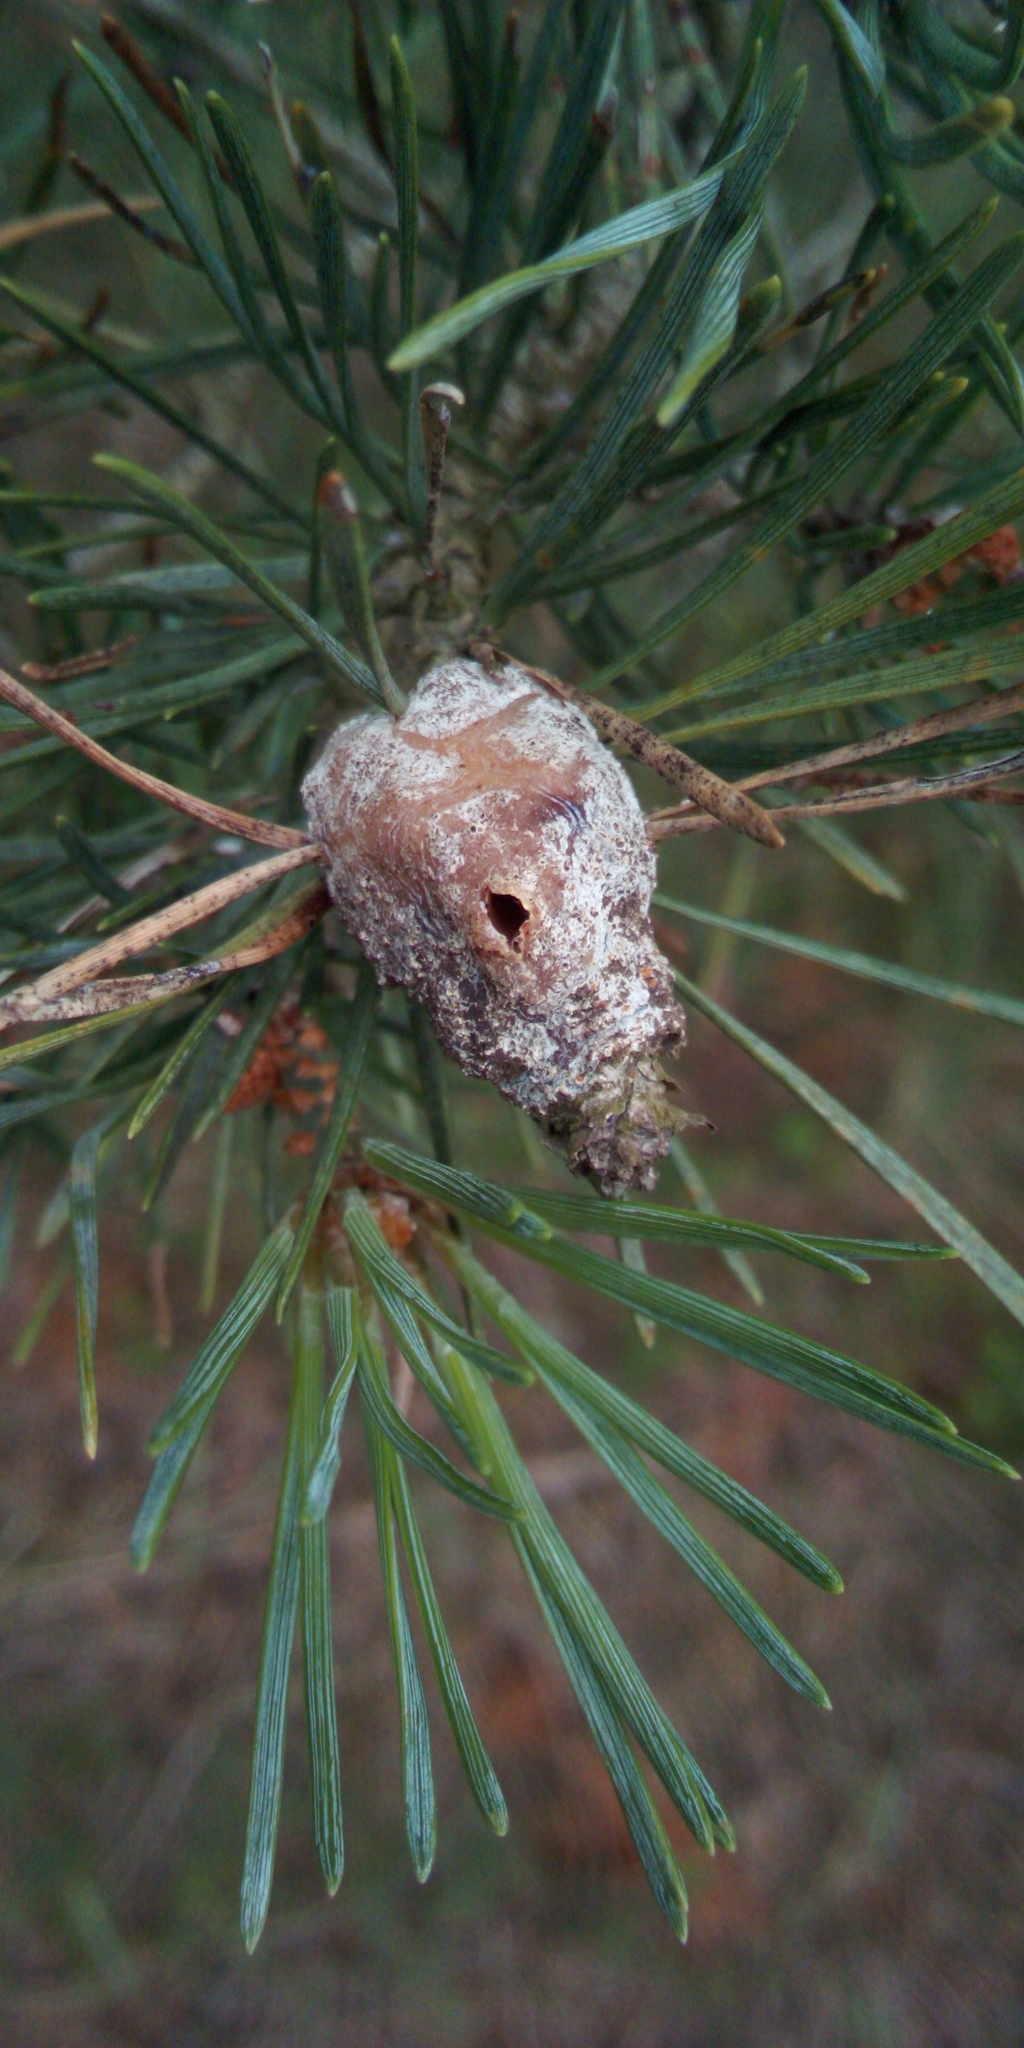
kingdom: Animalia
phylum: Arthropoda
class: Insecta
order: Lepidoptera
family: Tortricidae
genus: Retinia
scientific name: Retinia resinella
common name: Pine resin-gall moth
